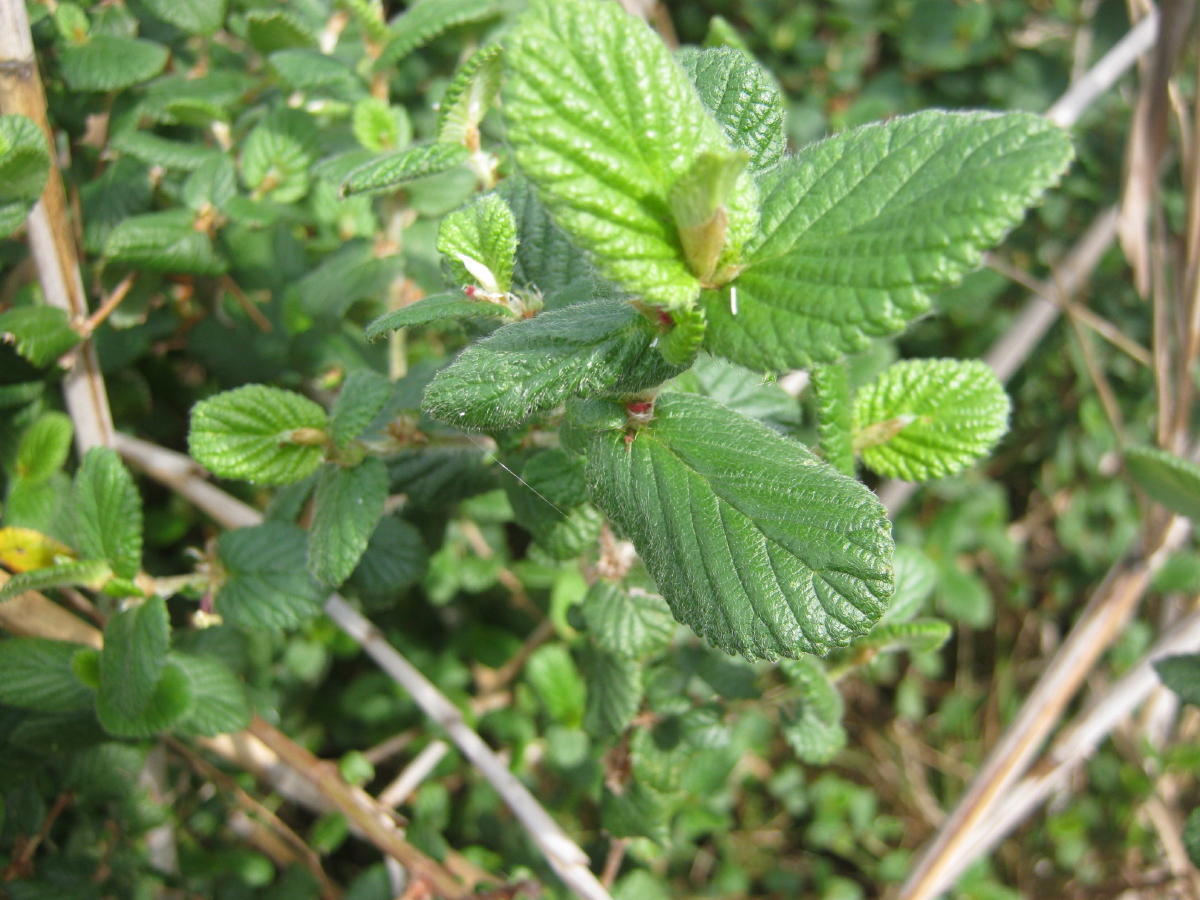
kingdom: Plantae
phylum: Tracheophyta
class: Magnoliopsida
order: Rosales
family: Rosaceae
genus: Cliffortia
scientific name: Cliffortia odorata
